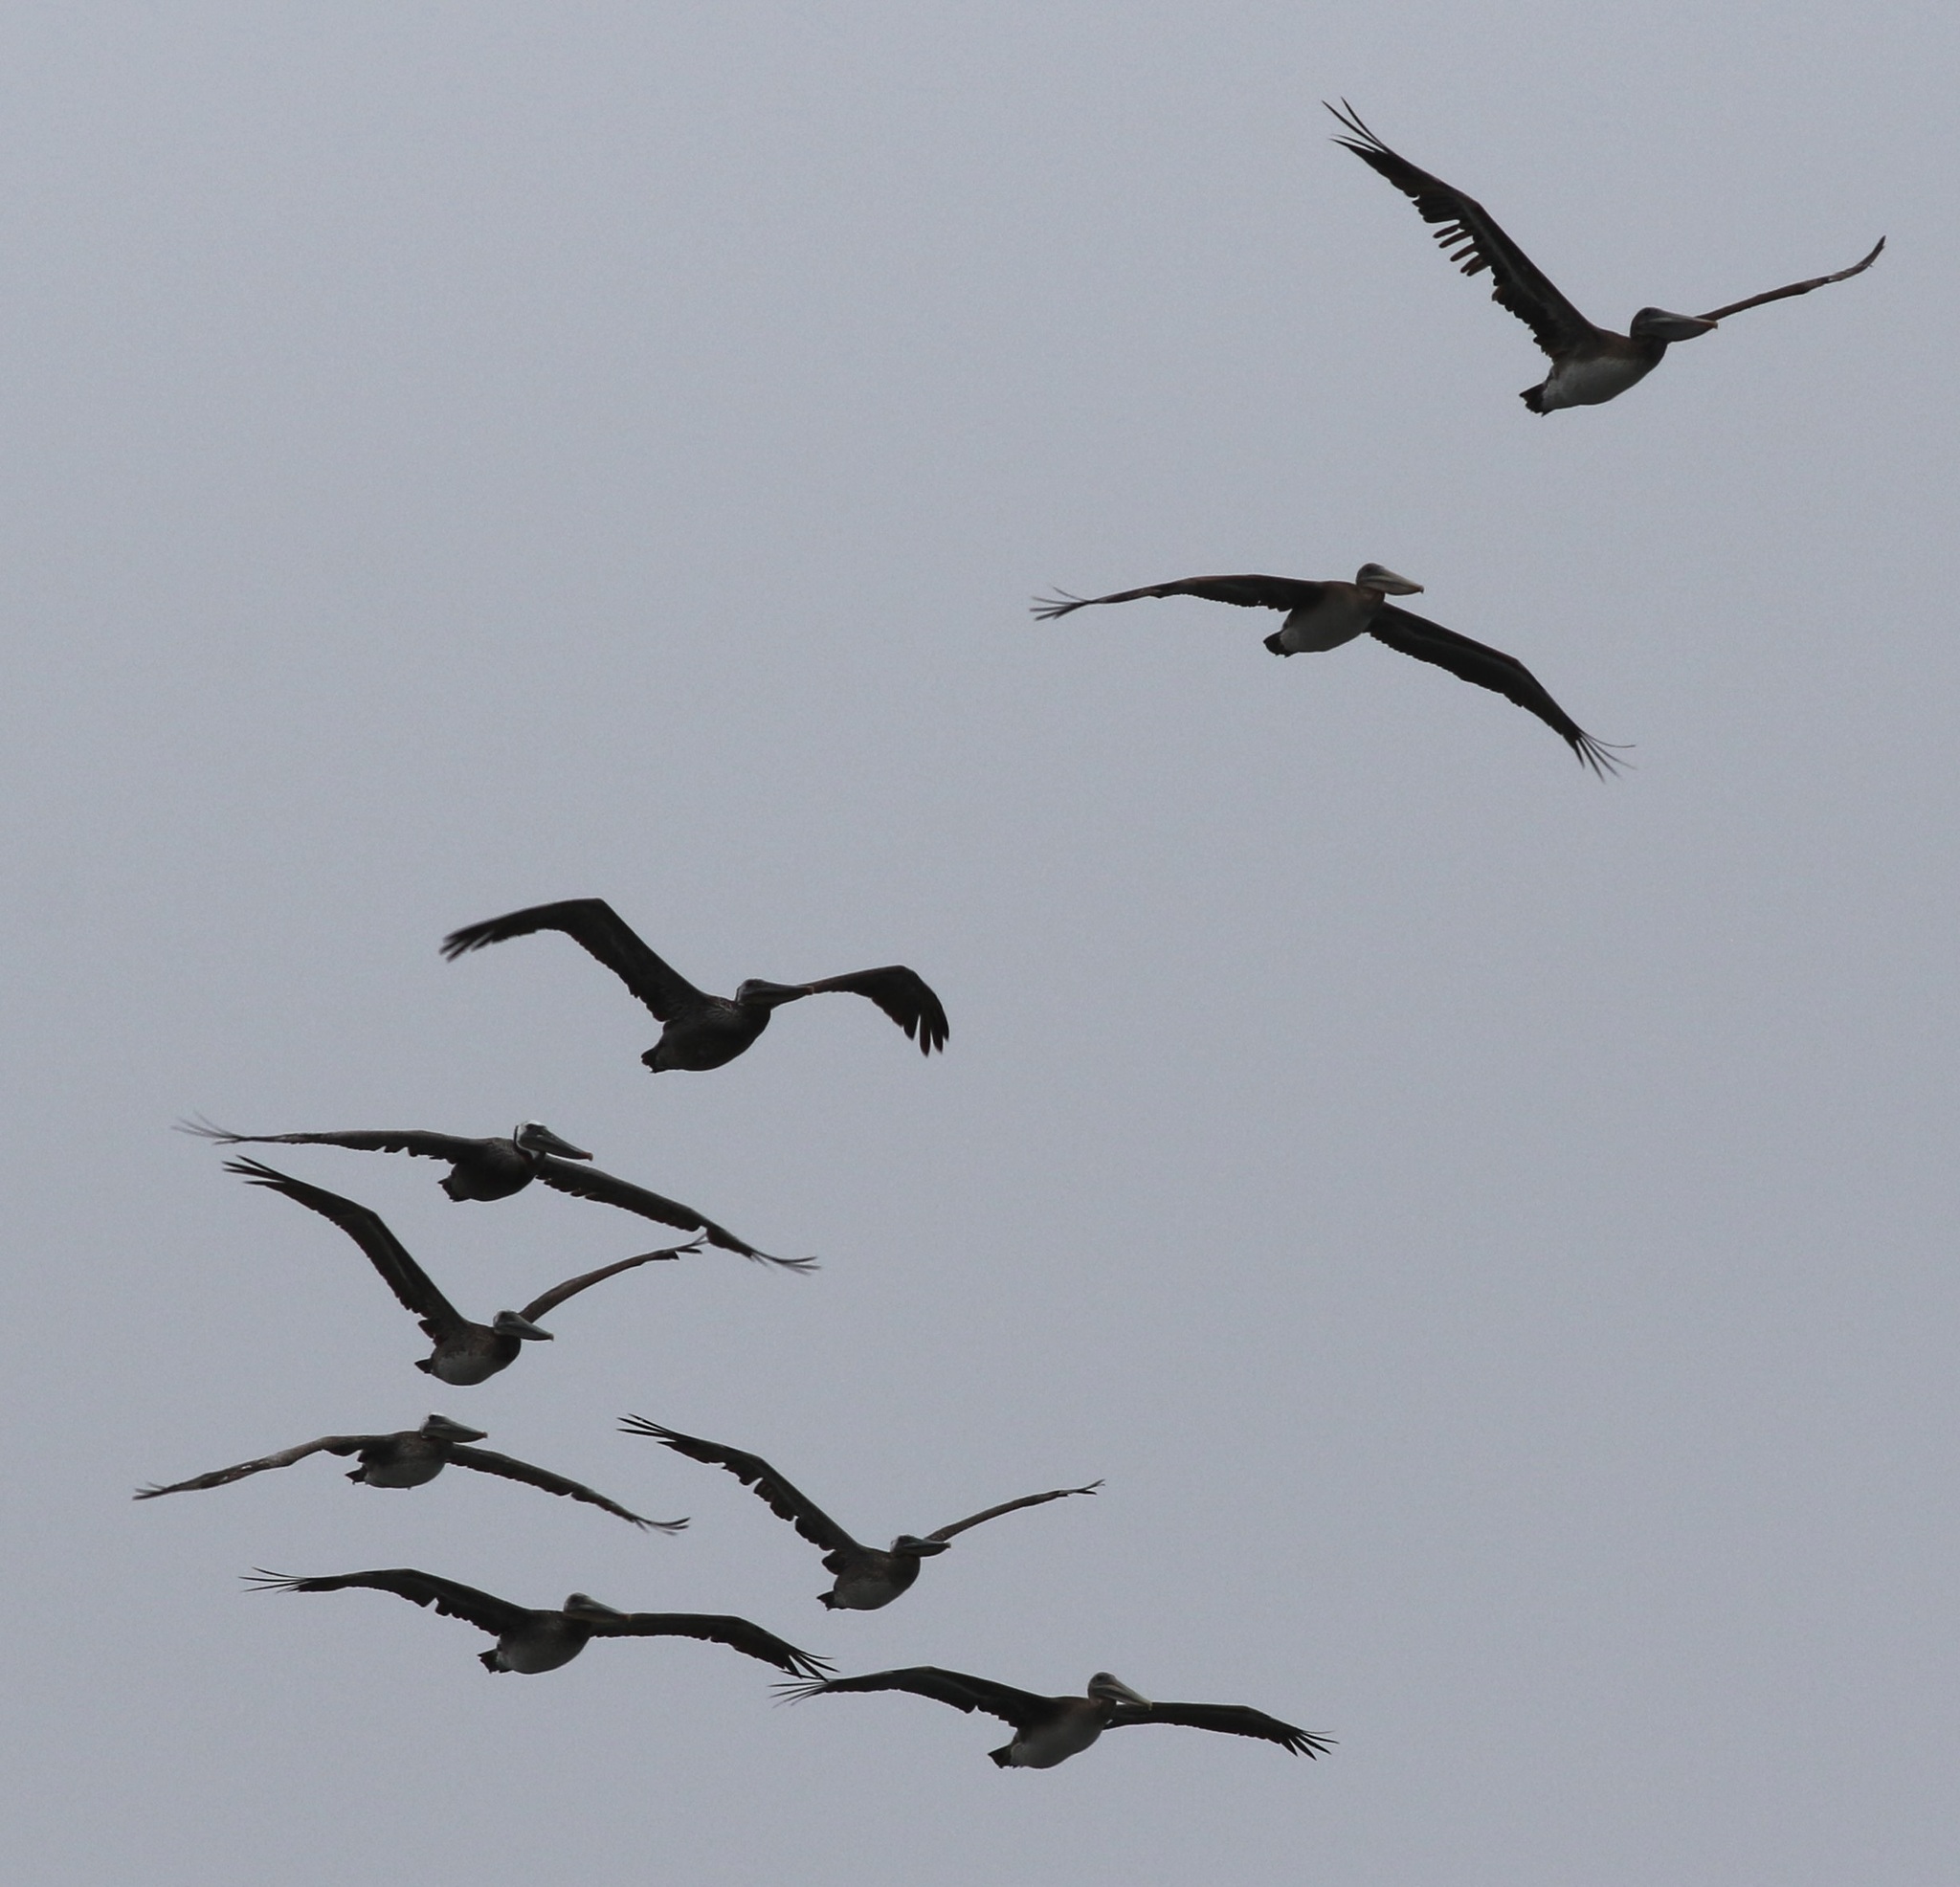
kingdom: Animalia
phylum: Chordata
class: Aves
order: Pelecaniformes
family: Pelecanidae
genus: Pelecanus
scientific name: Pelecanus occidentalis
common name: Brown pelican
